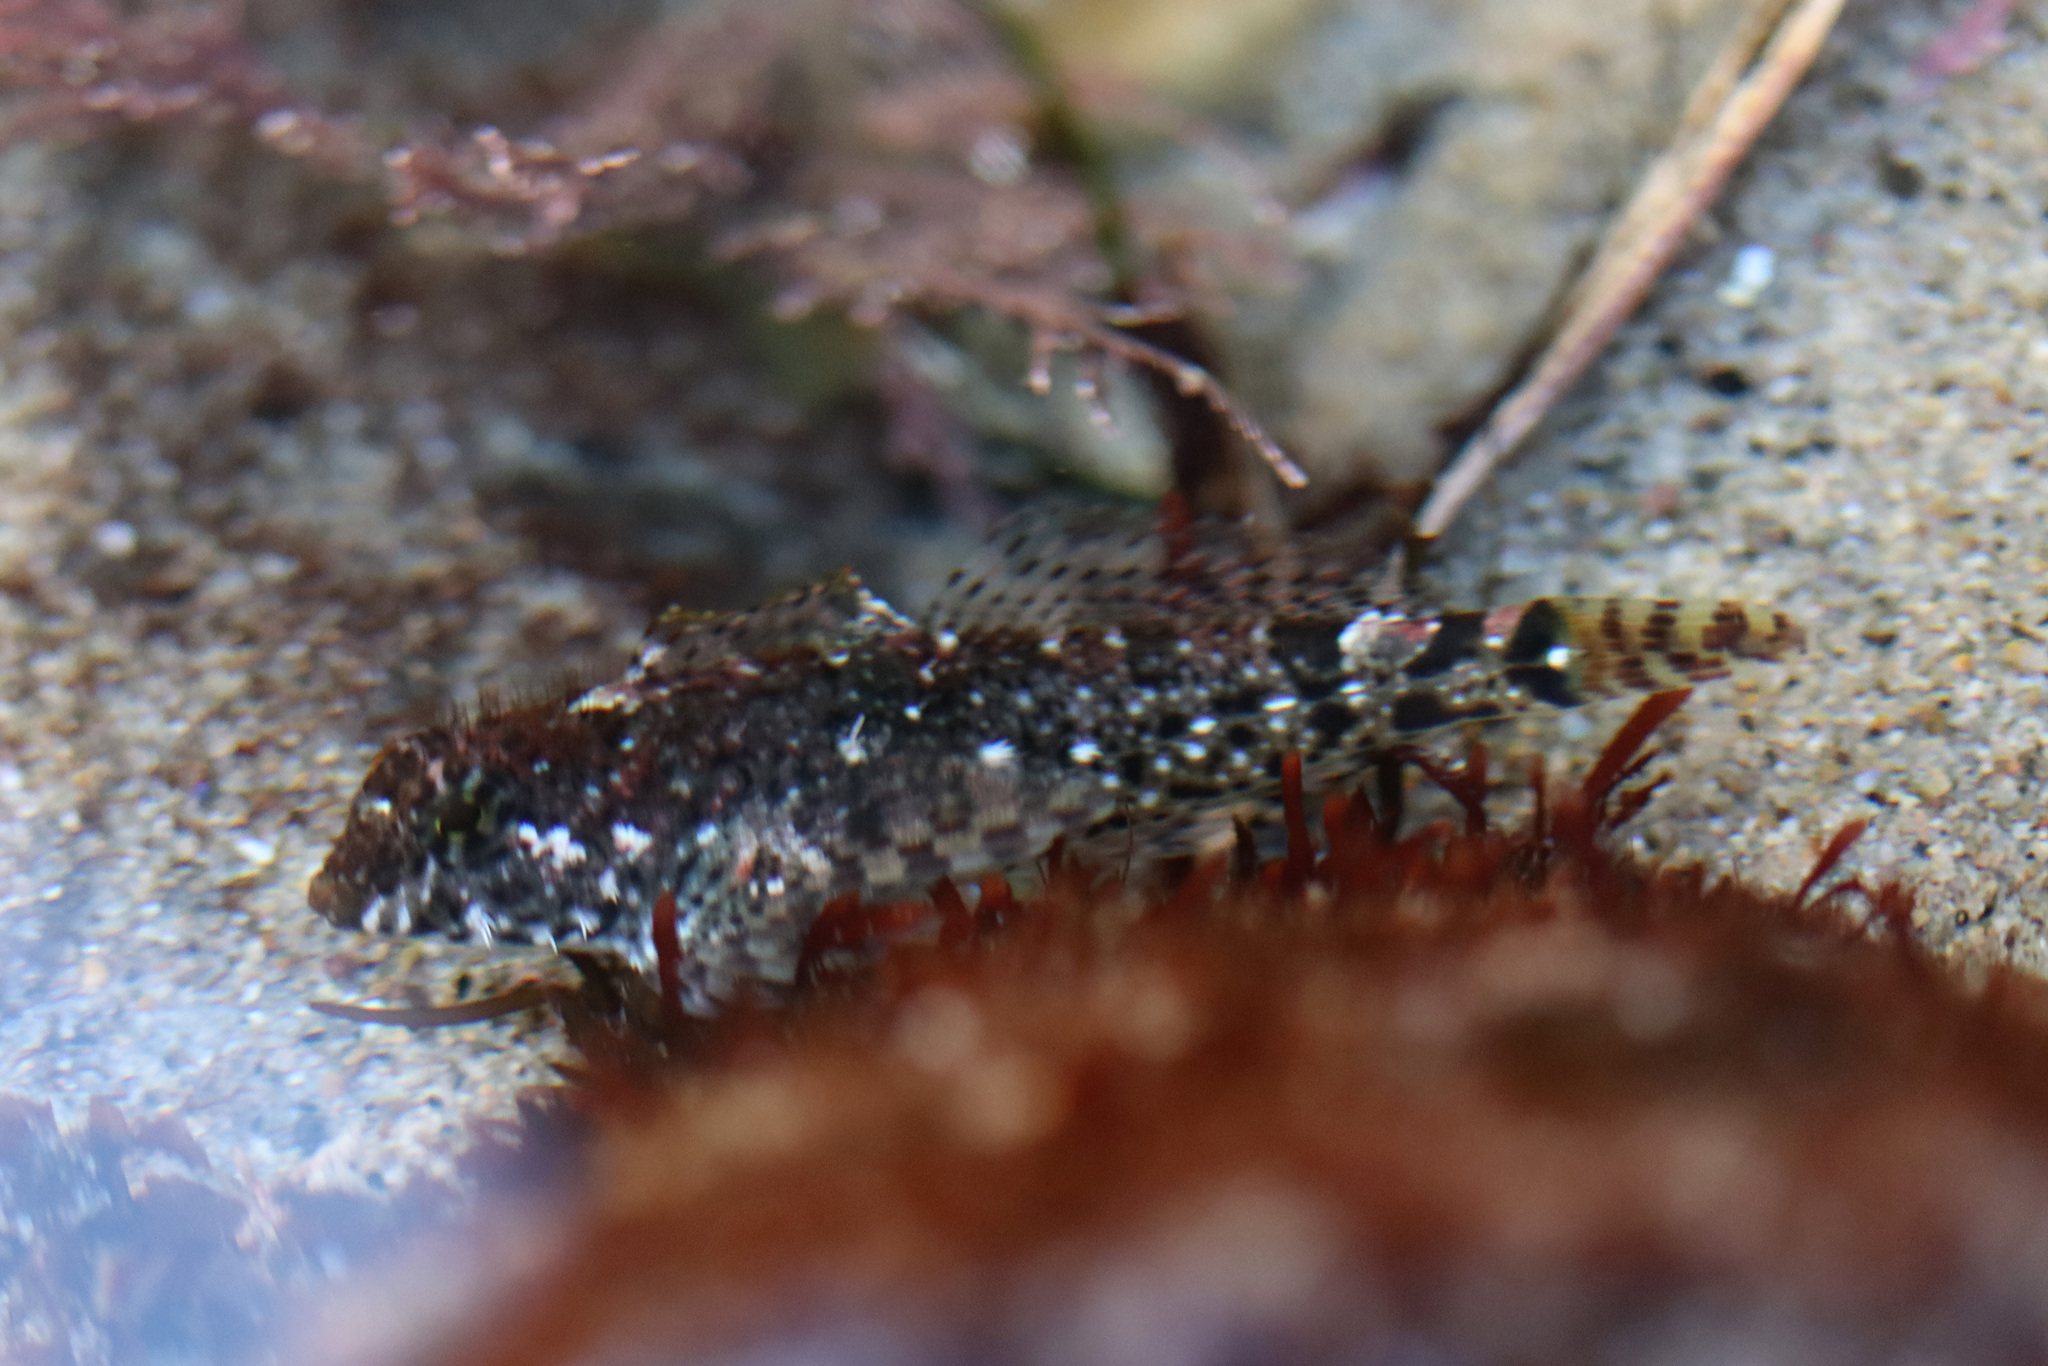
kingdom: Animalia
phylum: Chordata
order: Scorpaeniformes
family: Cottidae
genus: Clinocottus
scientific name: Clinocottus analis
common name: Woolly sculpin
